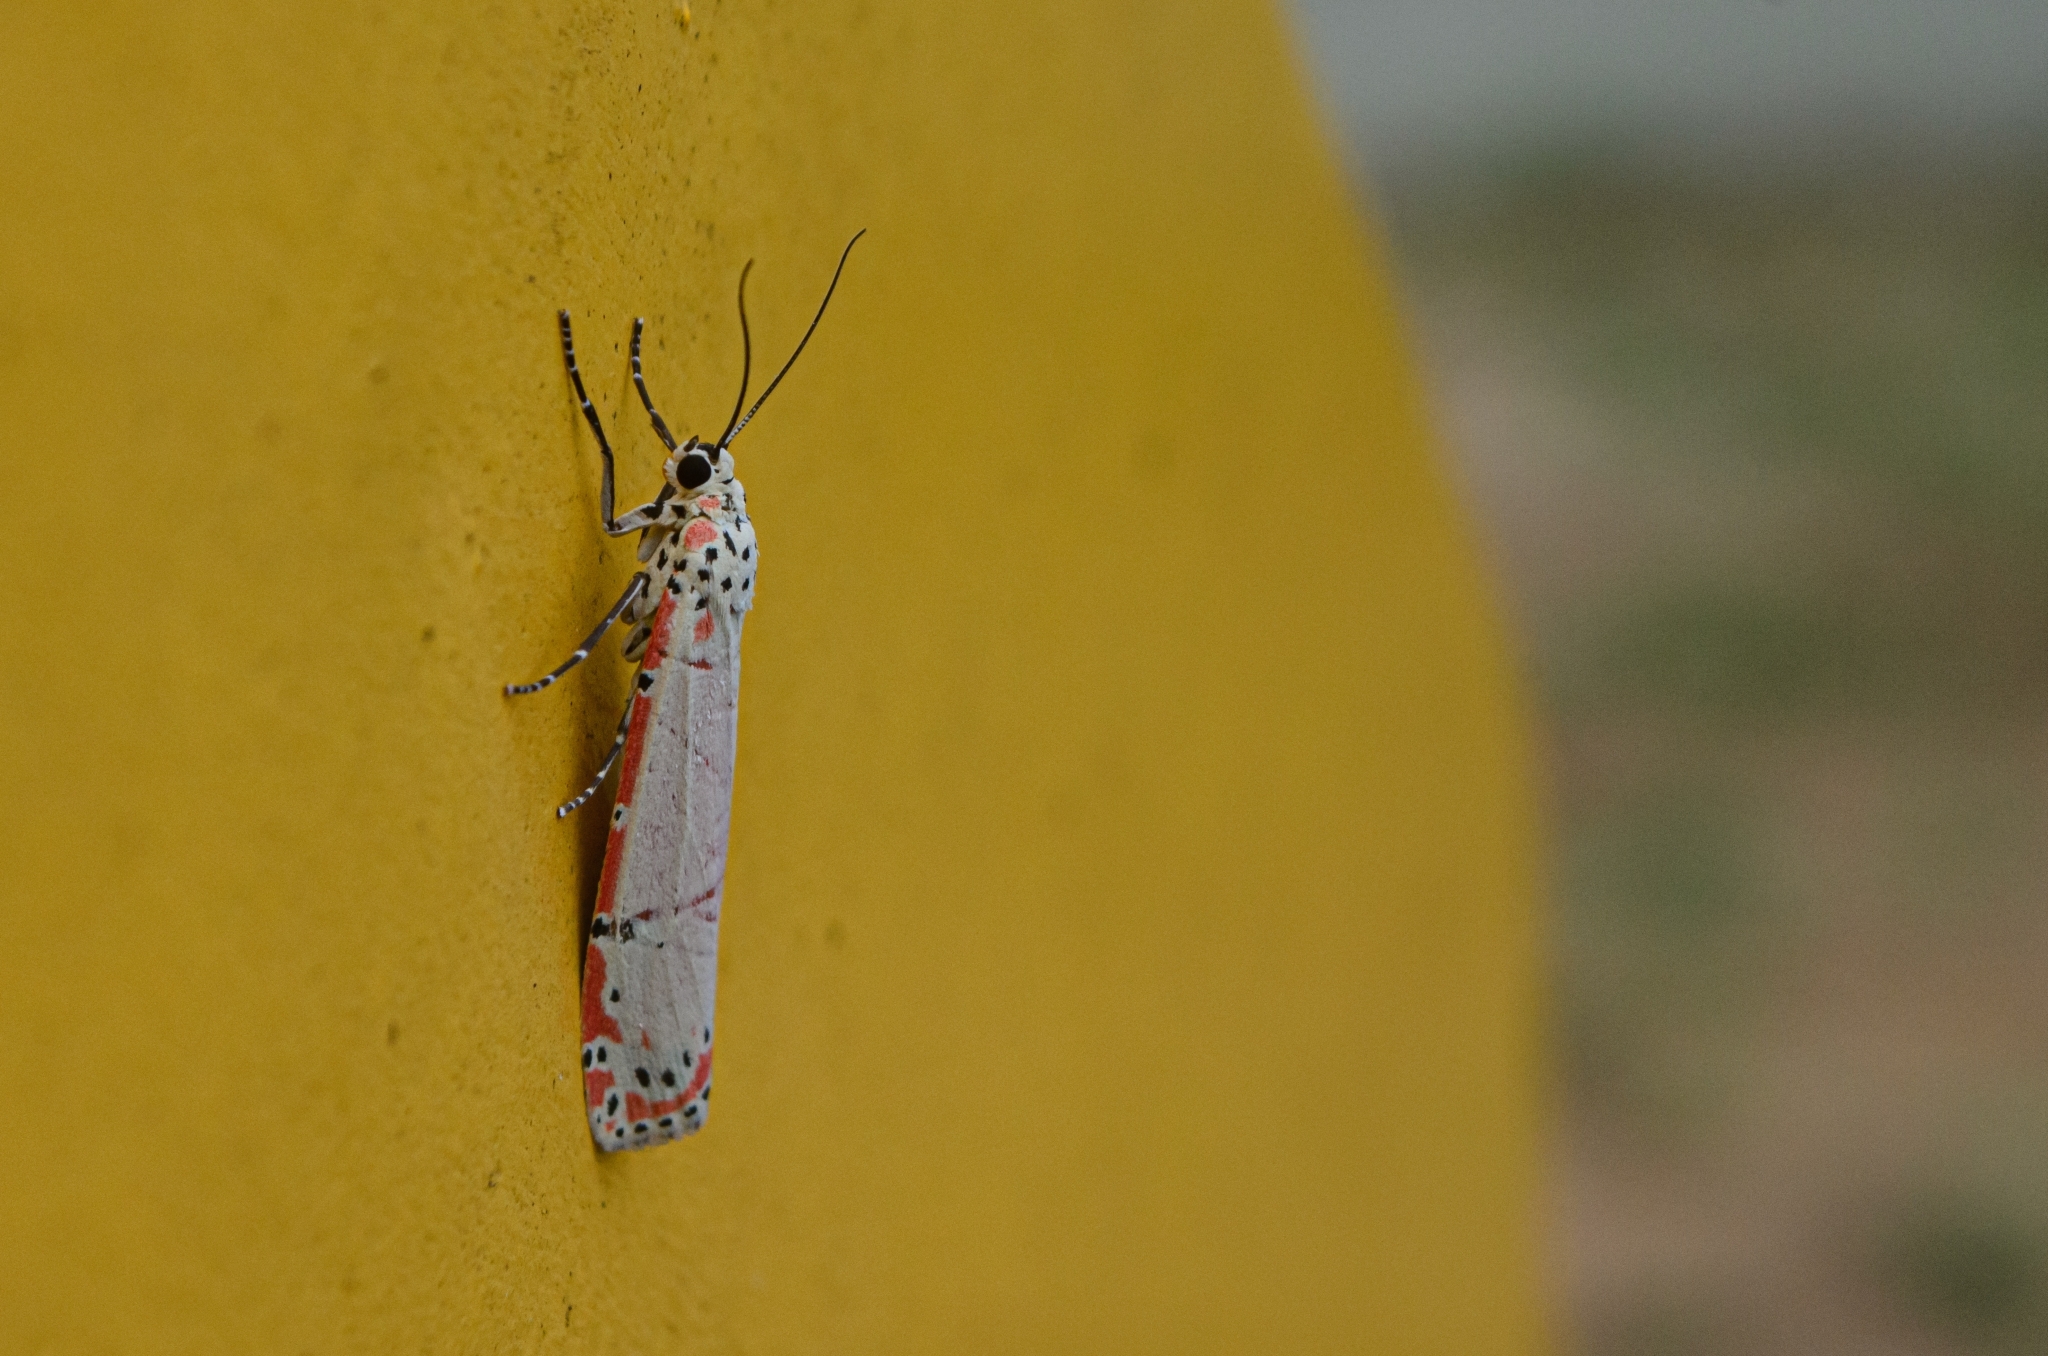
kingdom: Animalia
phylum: Arthropoda
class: Insecta
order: Lepidoptera
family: Erebidae
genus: Utetheisa
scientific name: Utetheisa ornatrix
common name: Beautiful utetheisa
